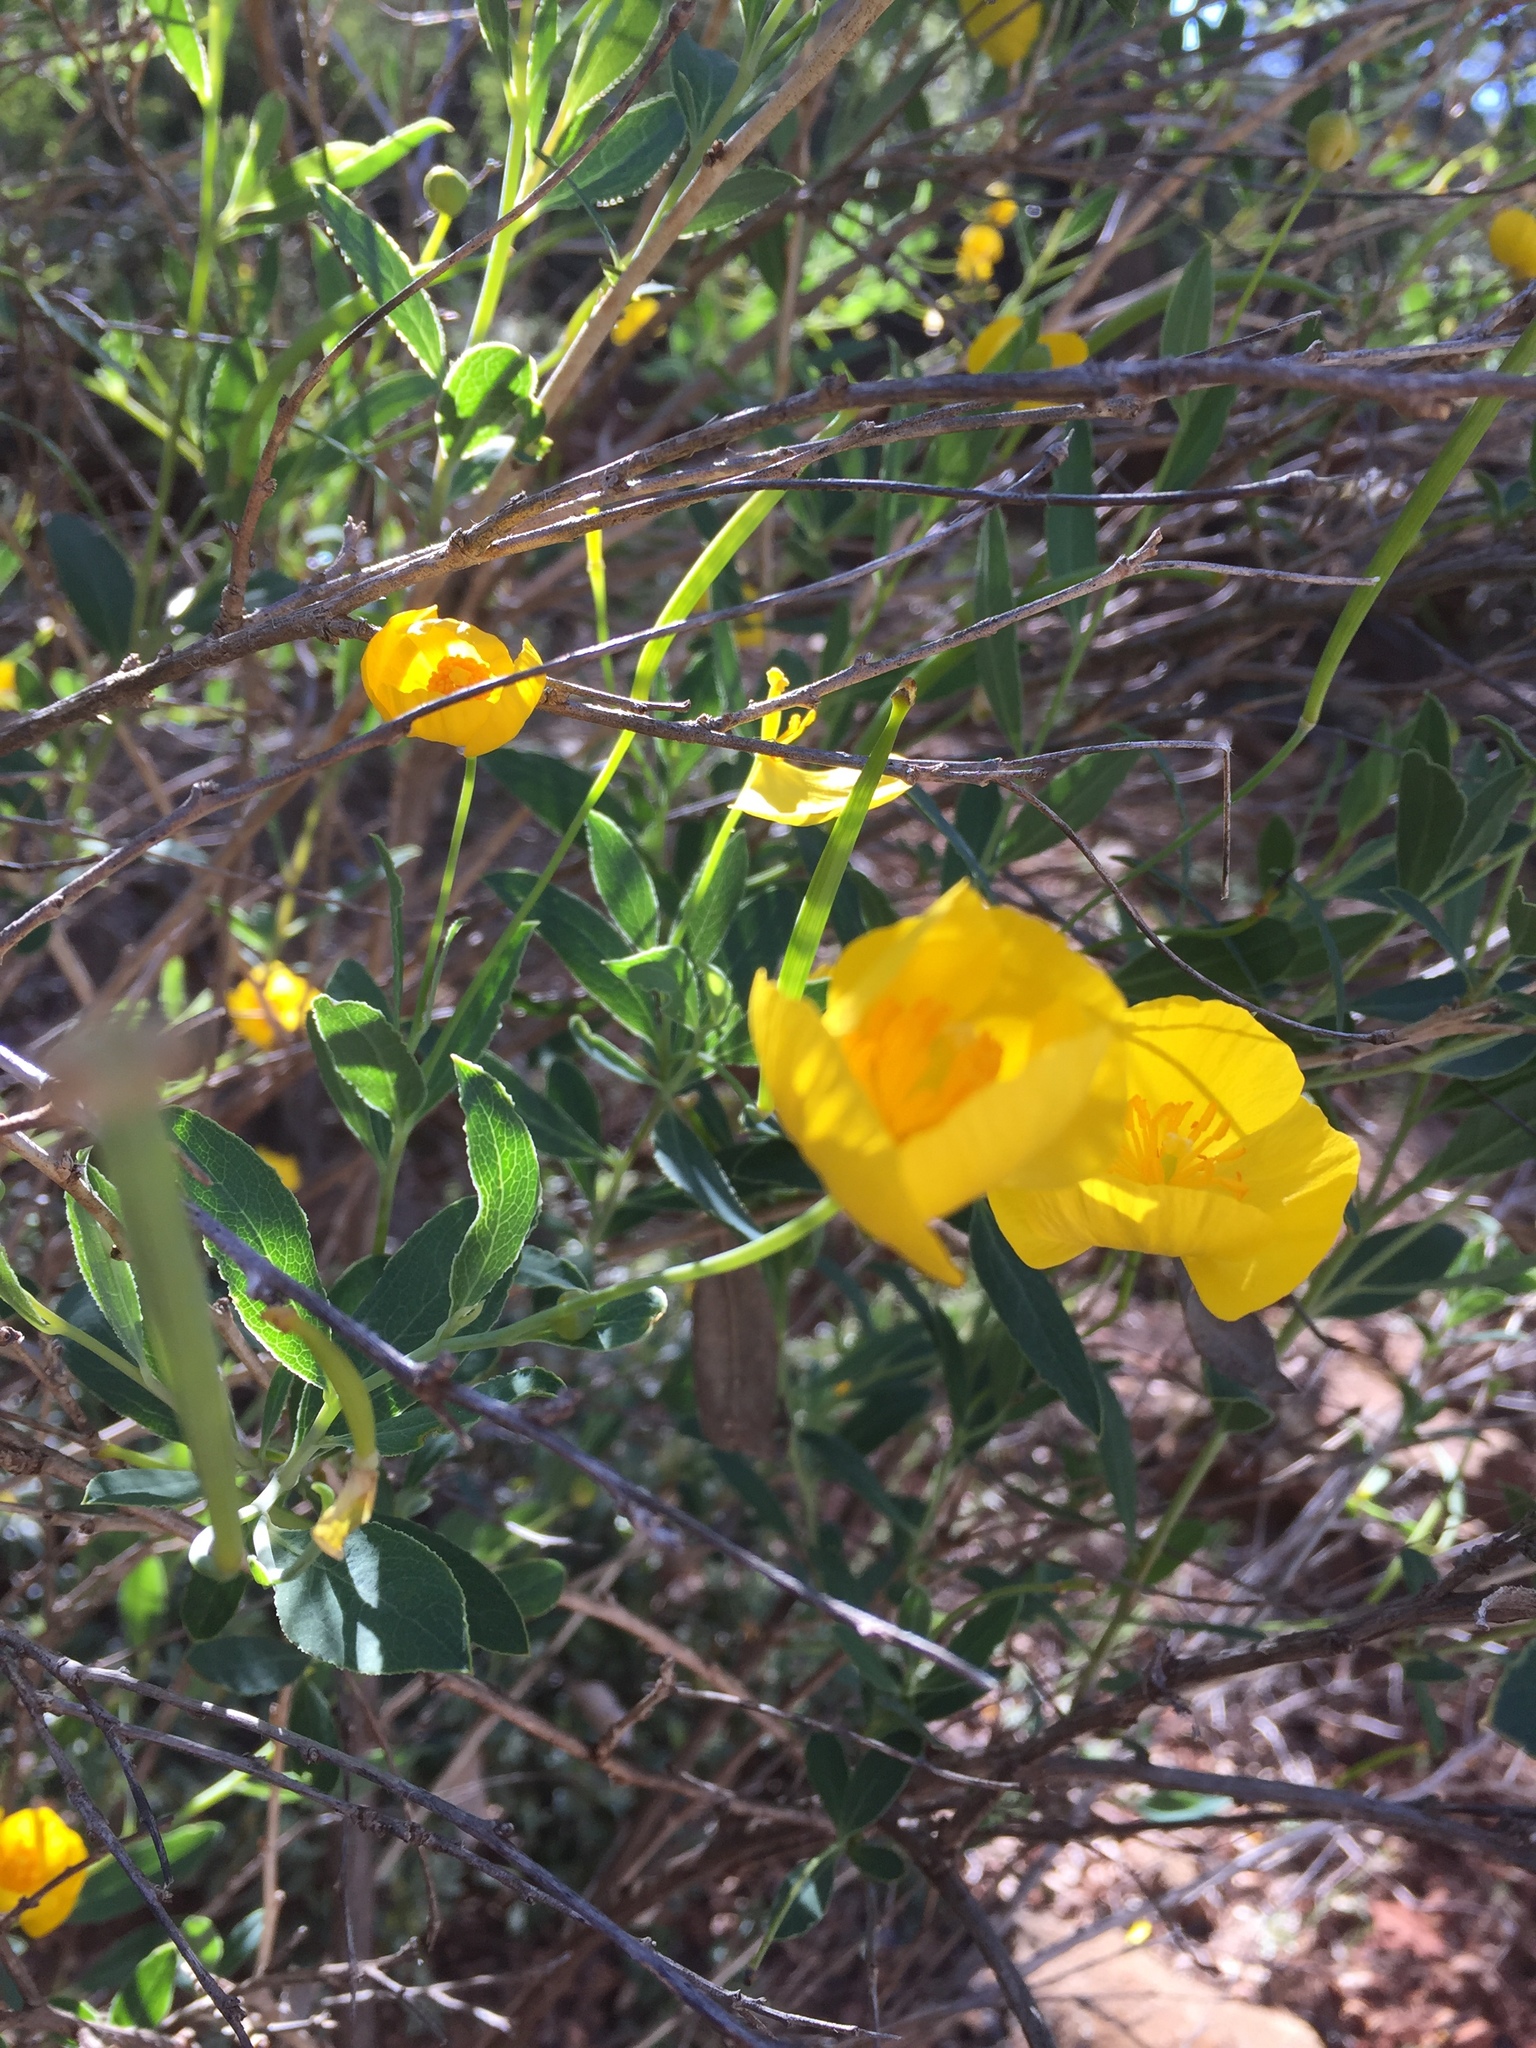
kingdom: Plantae
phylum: Tracheophyta
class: Magnoliopsida
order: Ranunculales
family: Papaveraceae
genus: Dendromecon
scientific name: Dendromecon rigida
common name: Tree poppy
